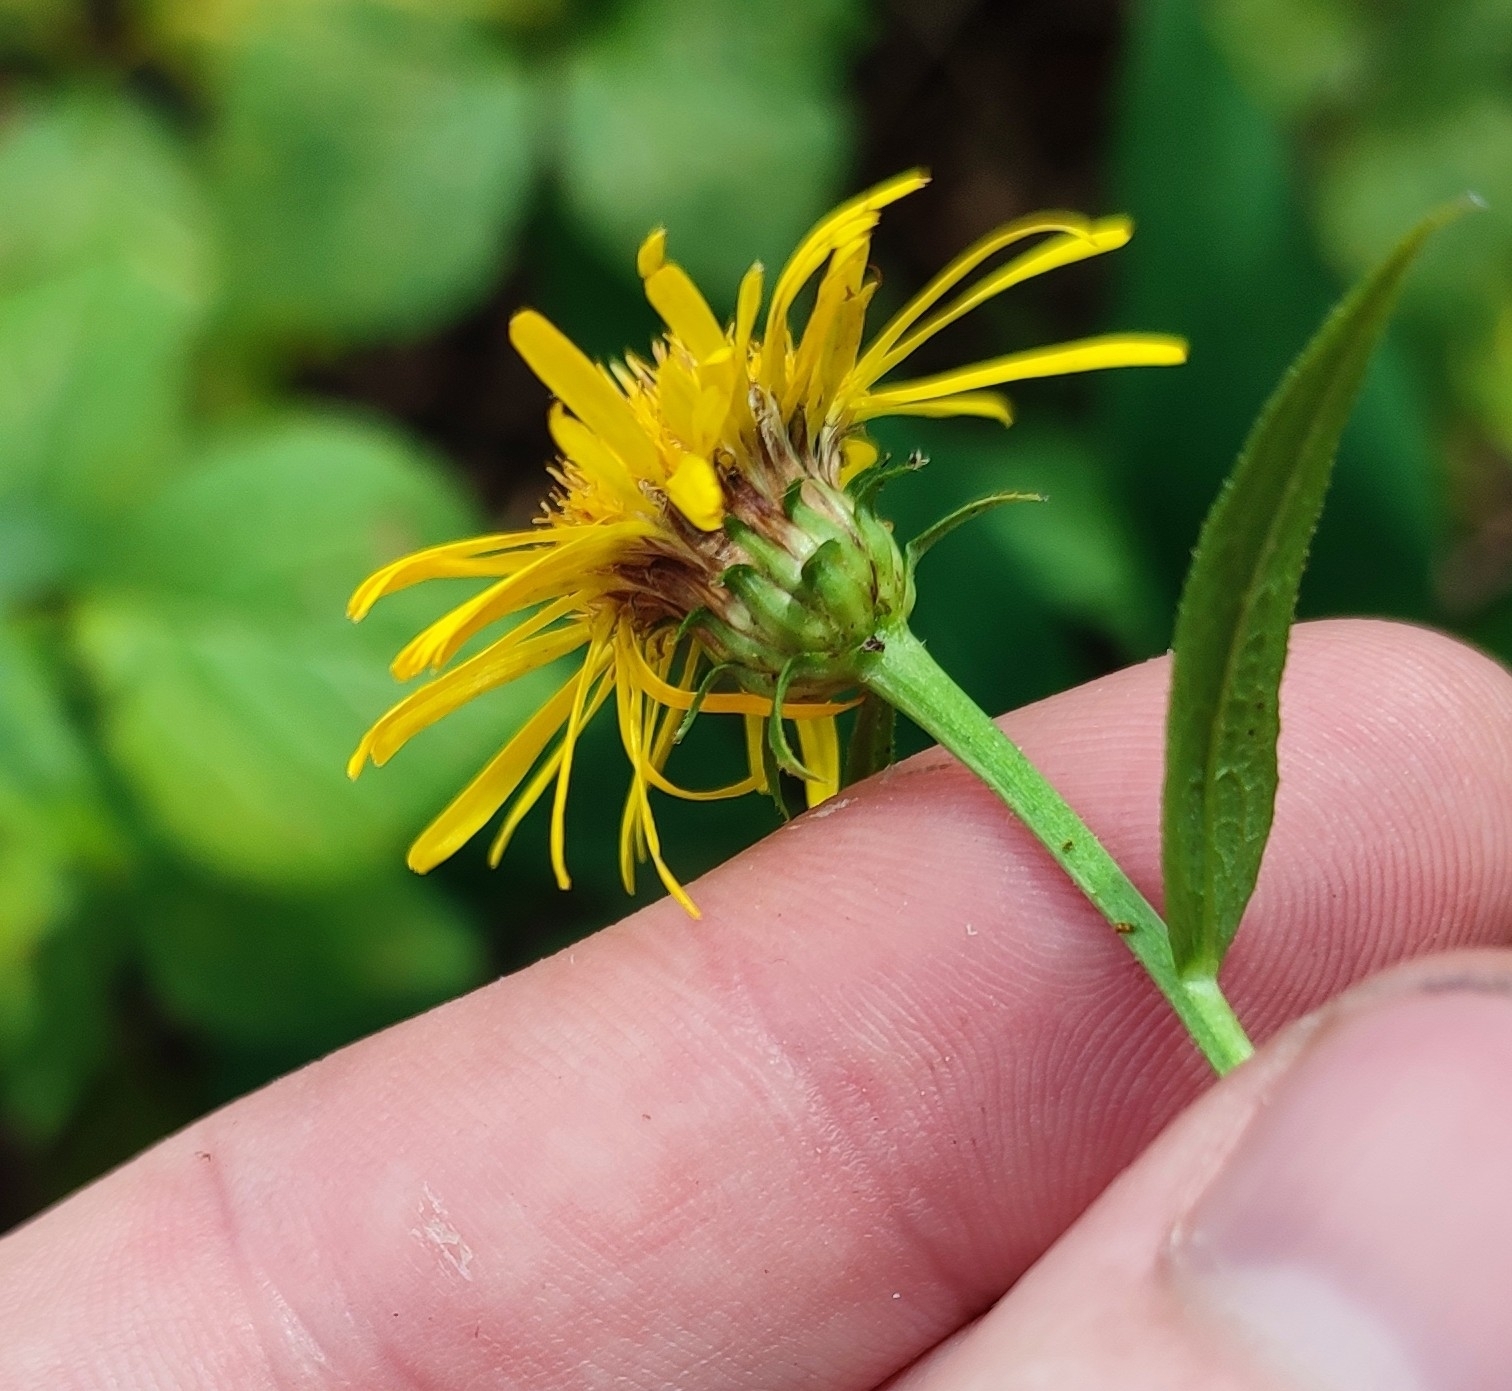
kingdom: Plantae
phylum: Tracheophyta
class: Magnoliopsida
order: Asterales
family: Asteraceae
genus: Pentanema
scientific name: Pentanema salicinum
